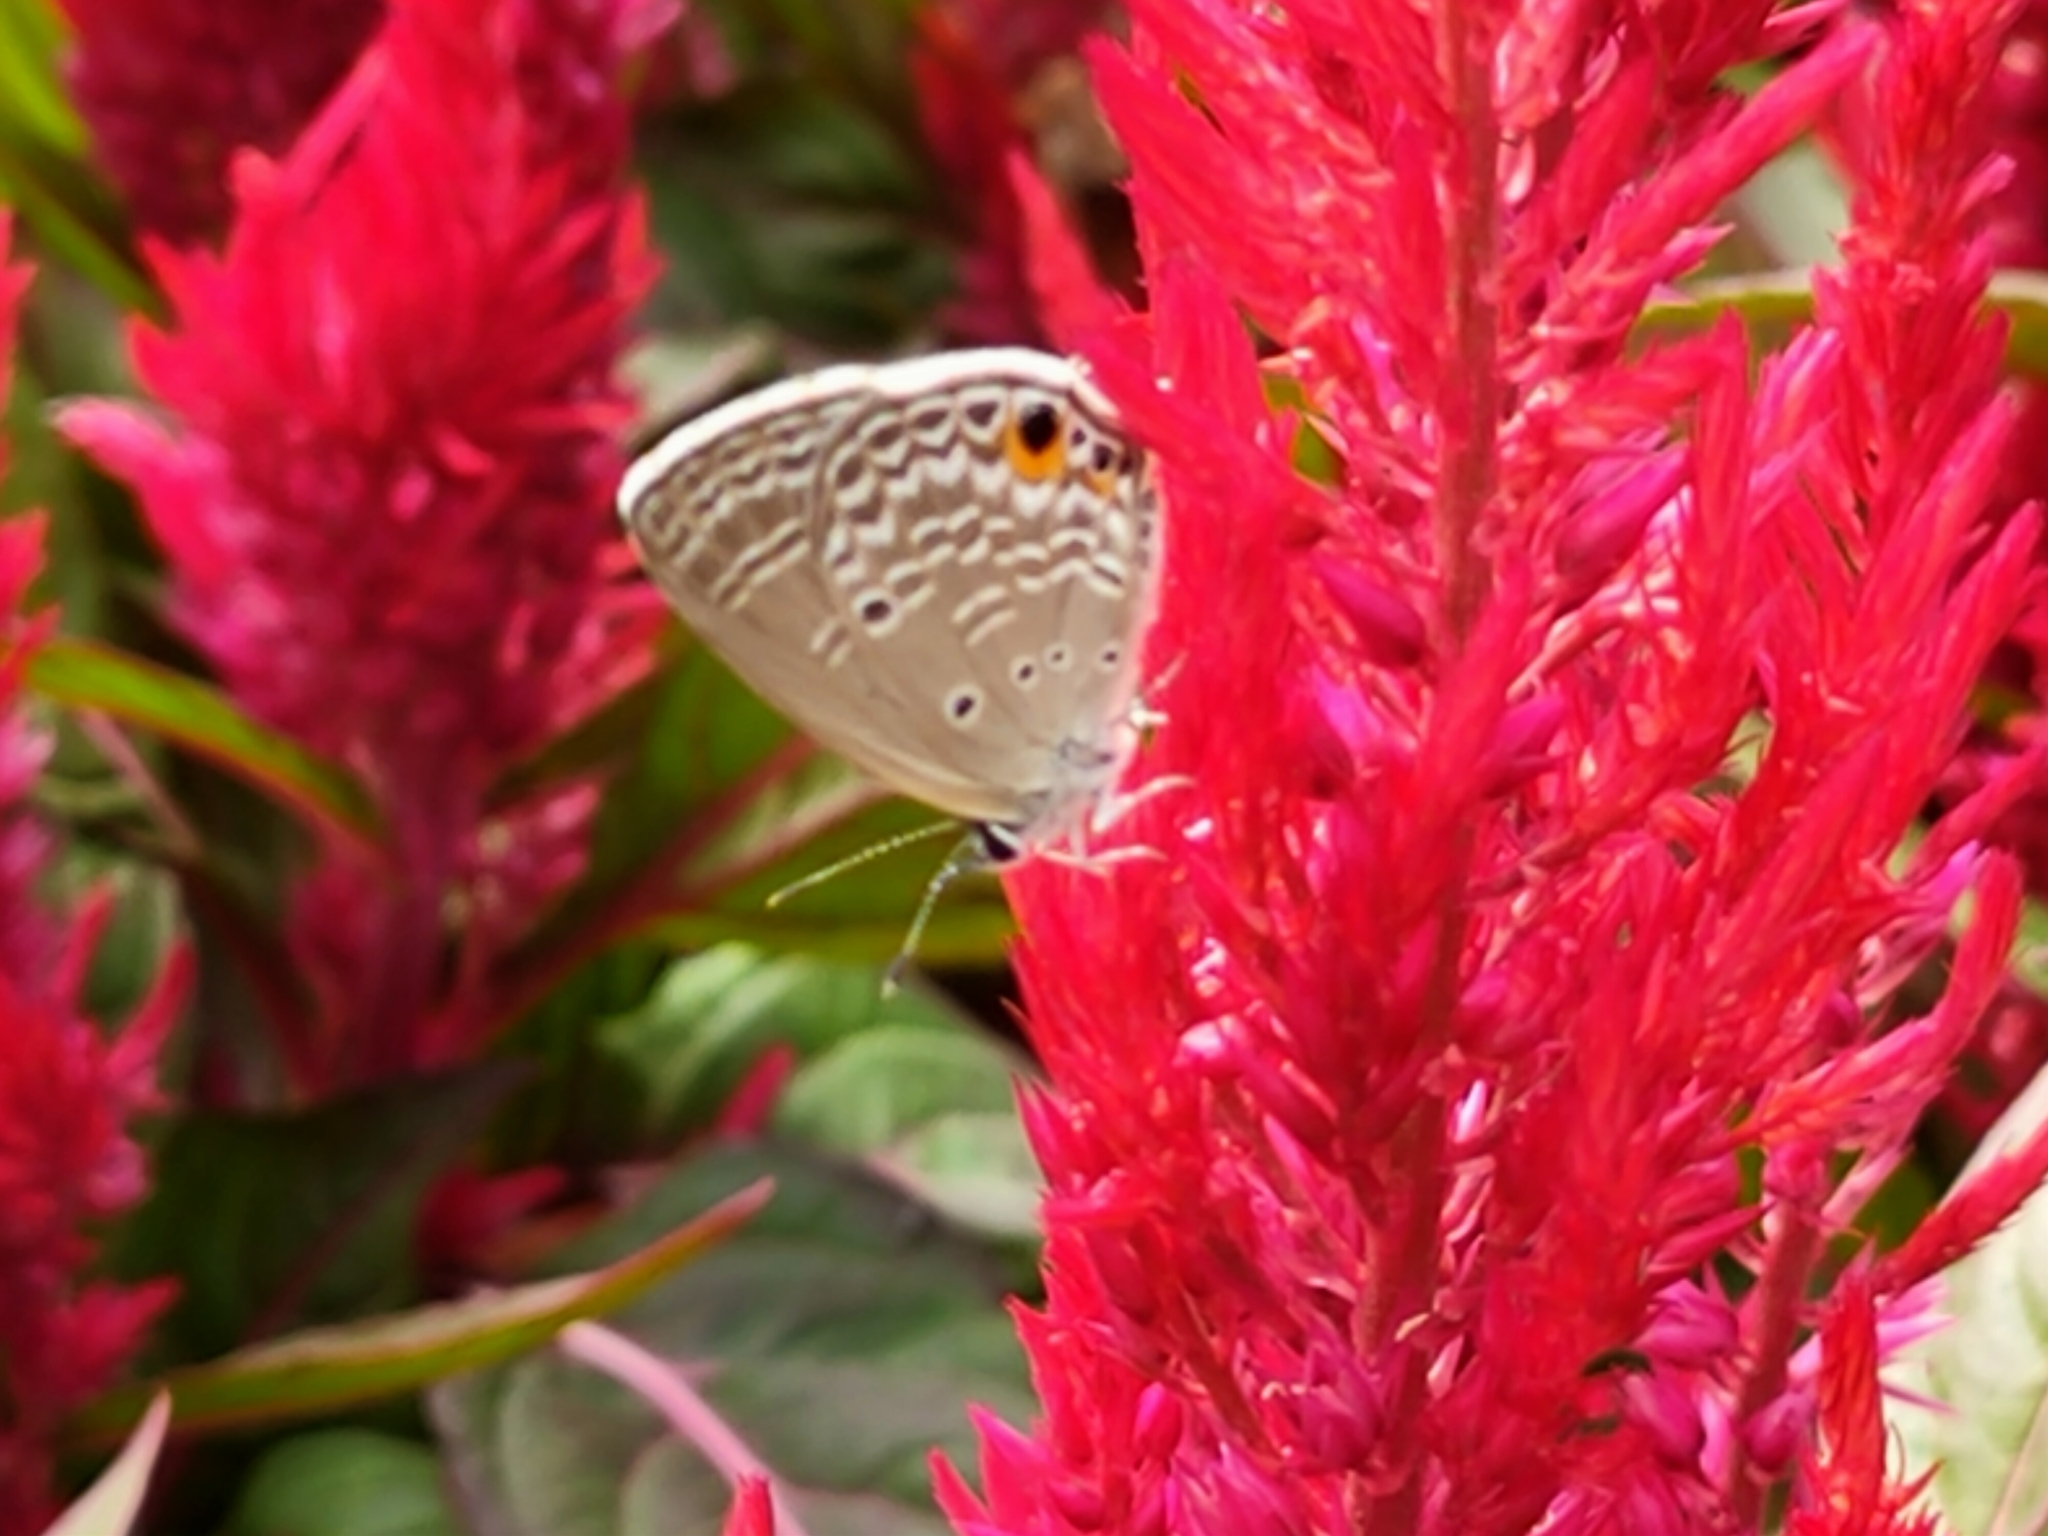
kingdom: Animalia
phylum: Arthropoda
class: Insecta
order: Lepidoptera
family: Lycaenidae
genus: Luthrodes
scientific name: Luthrodes pandava
